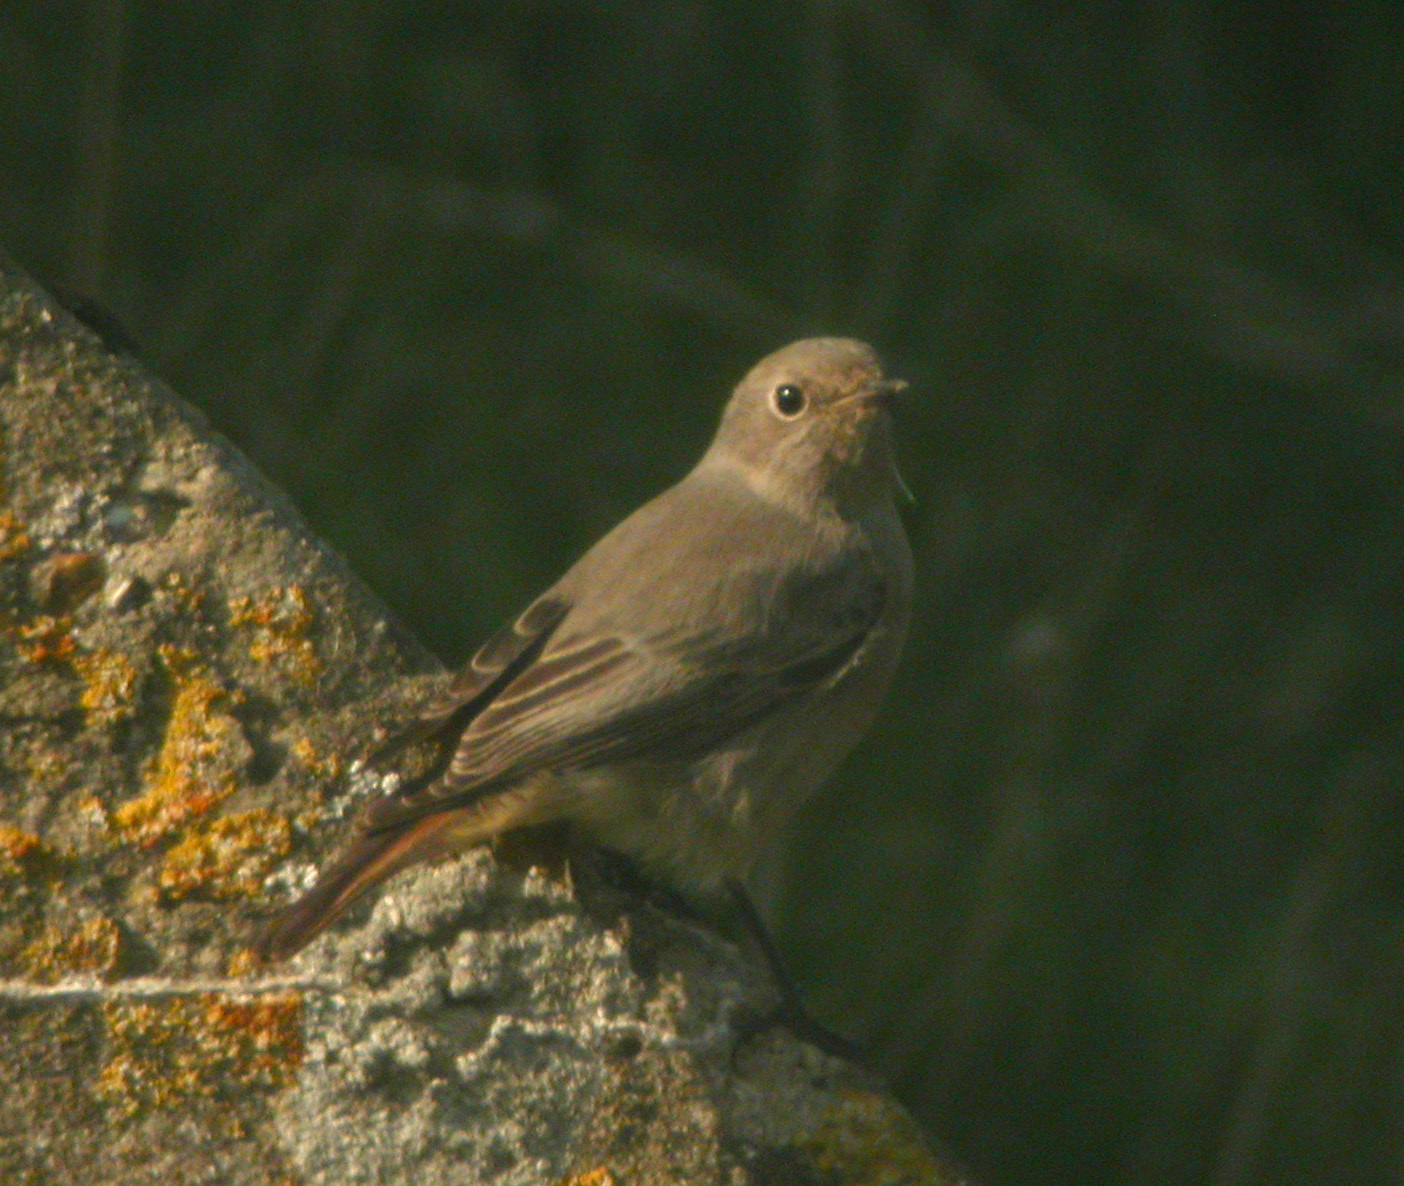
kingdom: Animalia
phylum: Chordata
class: Aves
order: Passeriformes
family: Muscicapidae
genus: Phoenicurus
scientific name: Phoenicurus ochruros
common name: Black redstart
